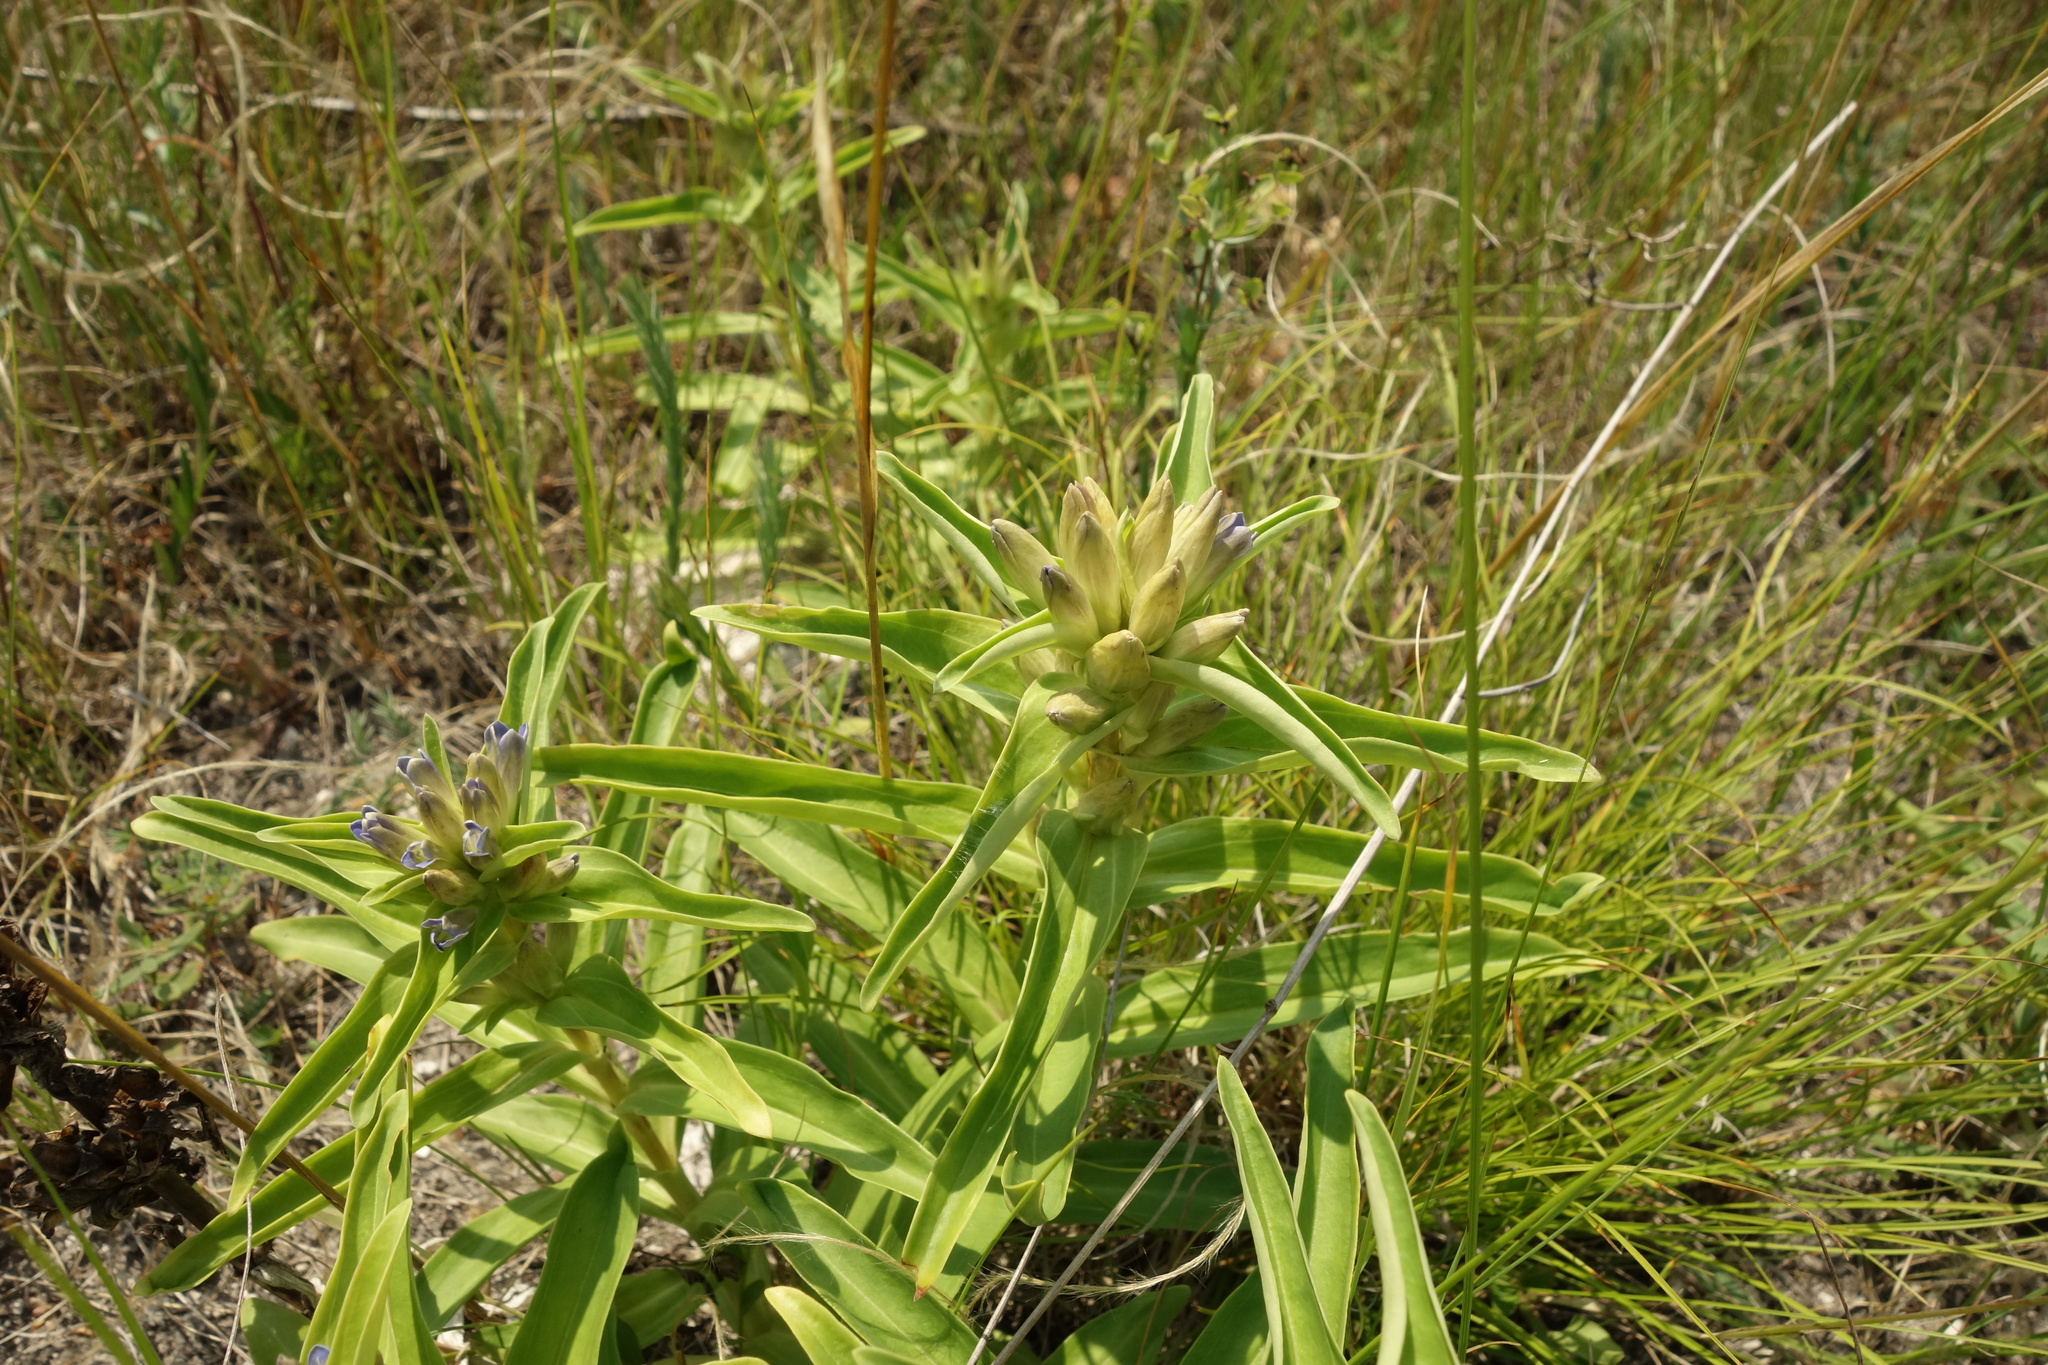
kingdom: Plantae
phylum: Tracheophyta
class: Magnoliopsida
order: Gentianales
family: Gentianaceae
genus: Gentiana
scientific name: Gentiana cruciata
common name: Cross gentian
